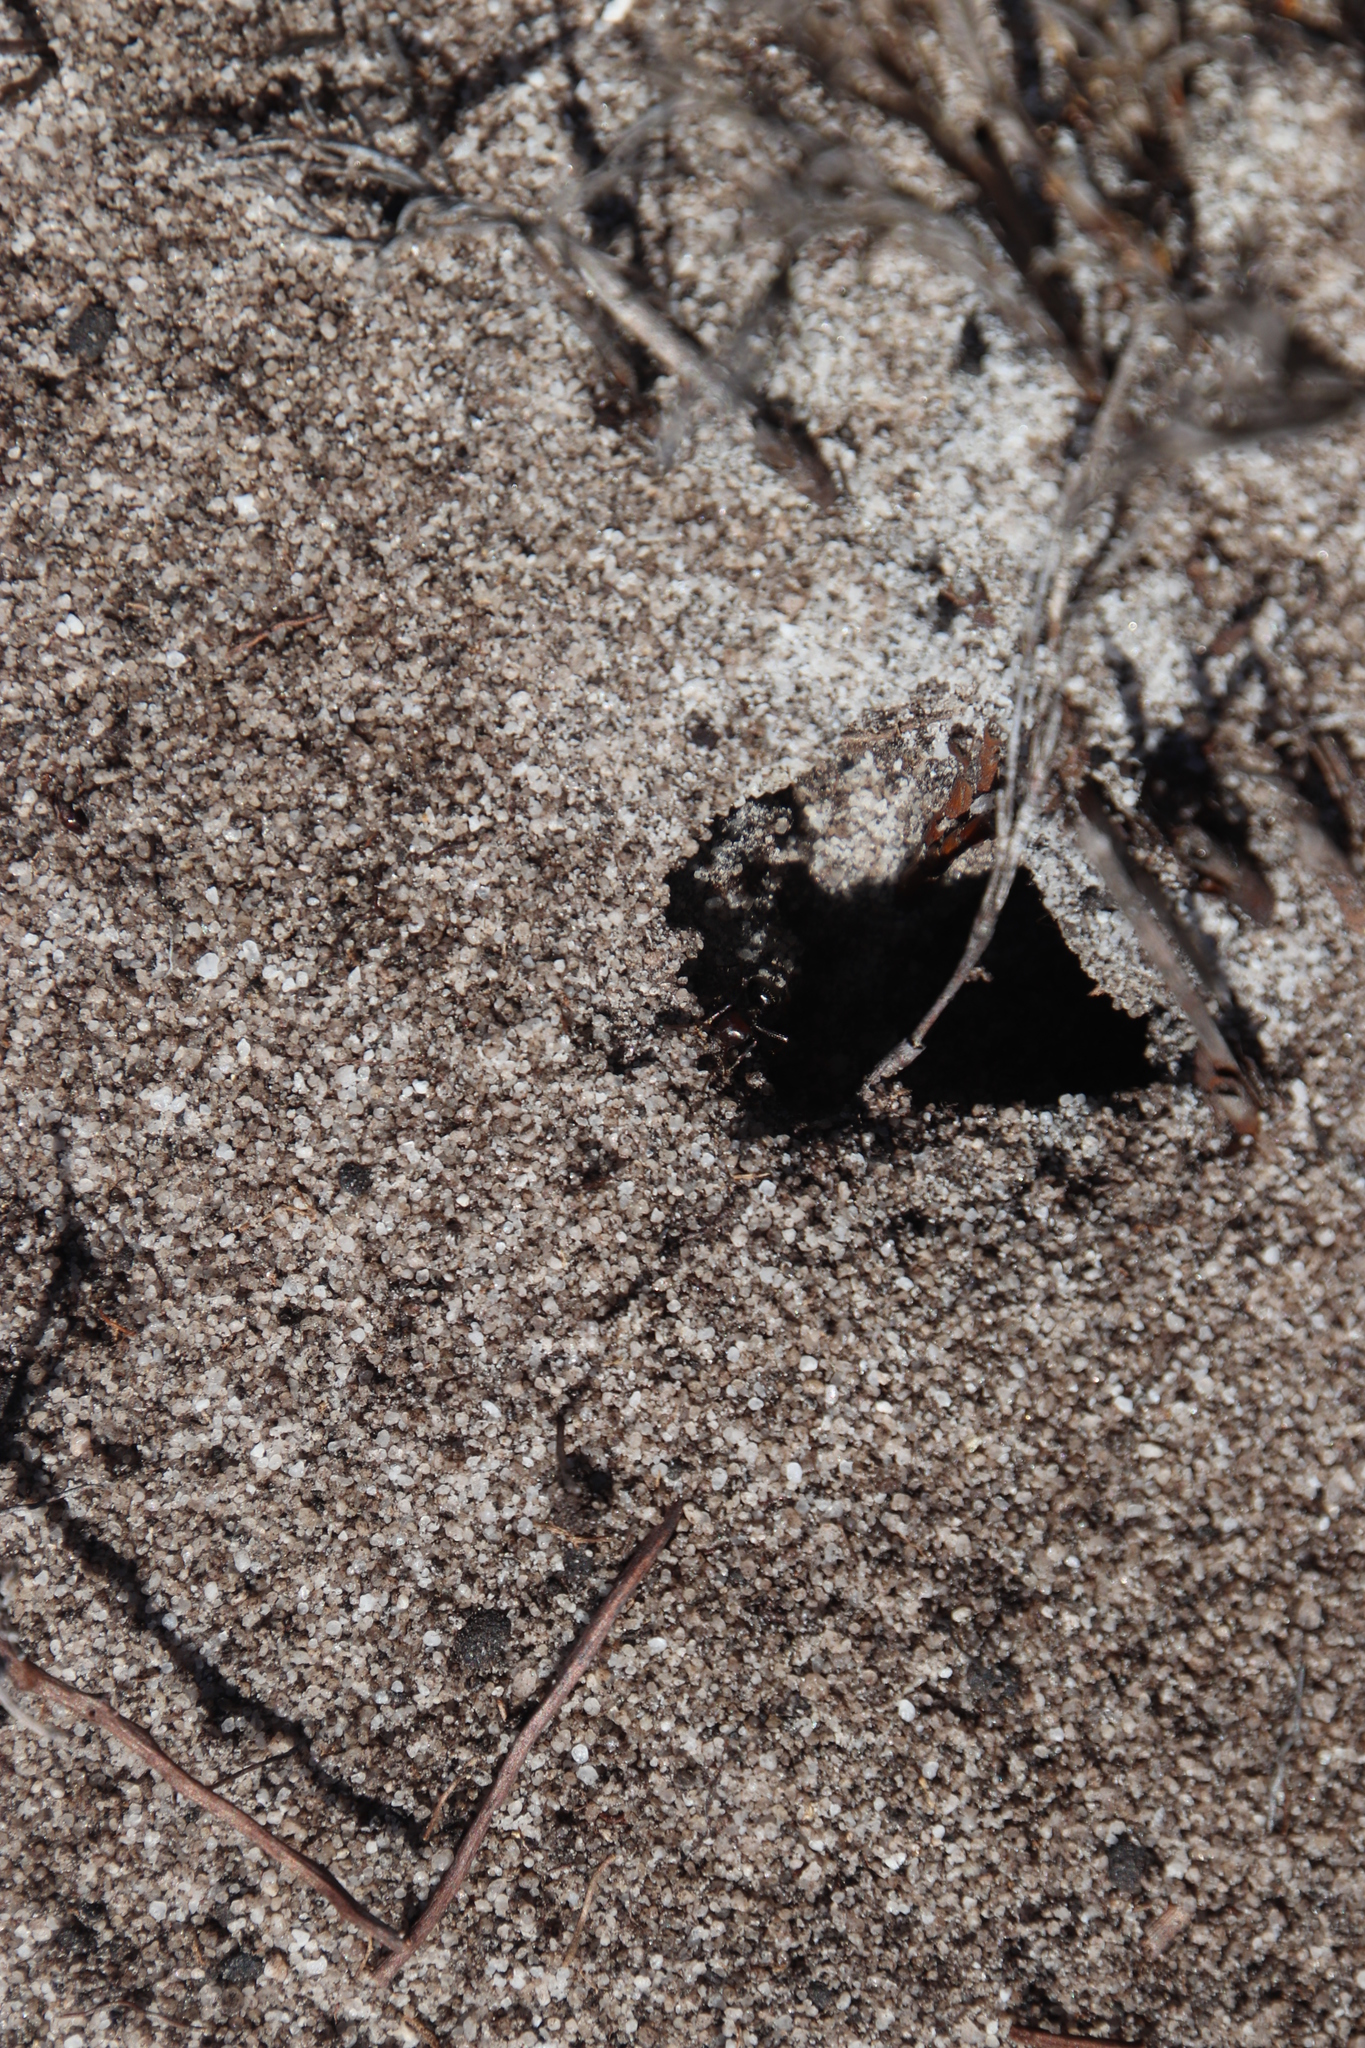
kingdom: Animalia
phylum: Arthropoda
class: Insecta
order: Hymenoptera
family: Formicidae
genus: Anoplolepis
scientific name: Anoplolepis steingroeveri
